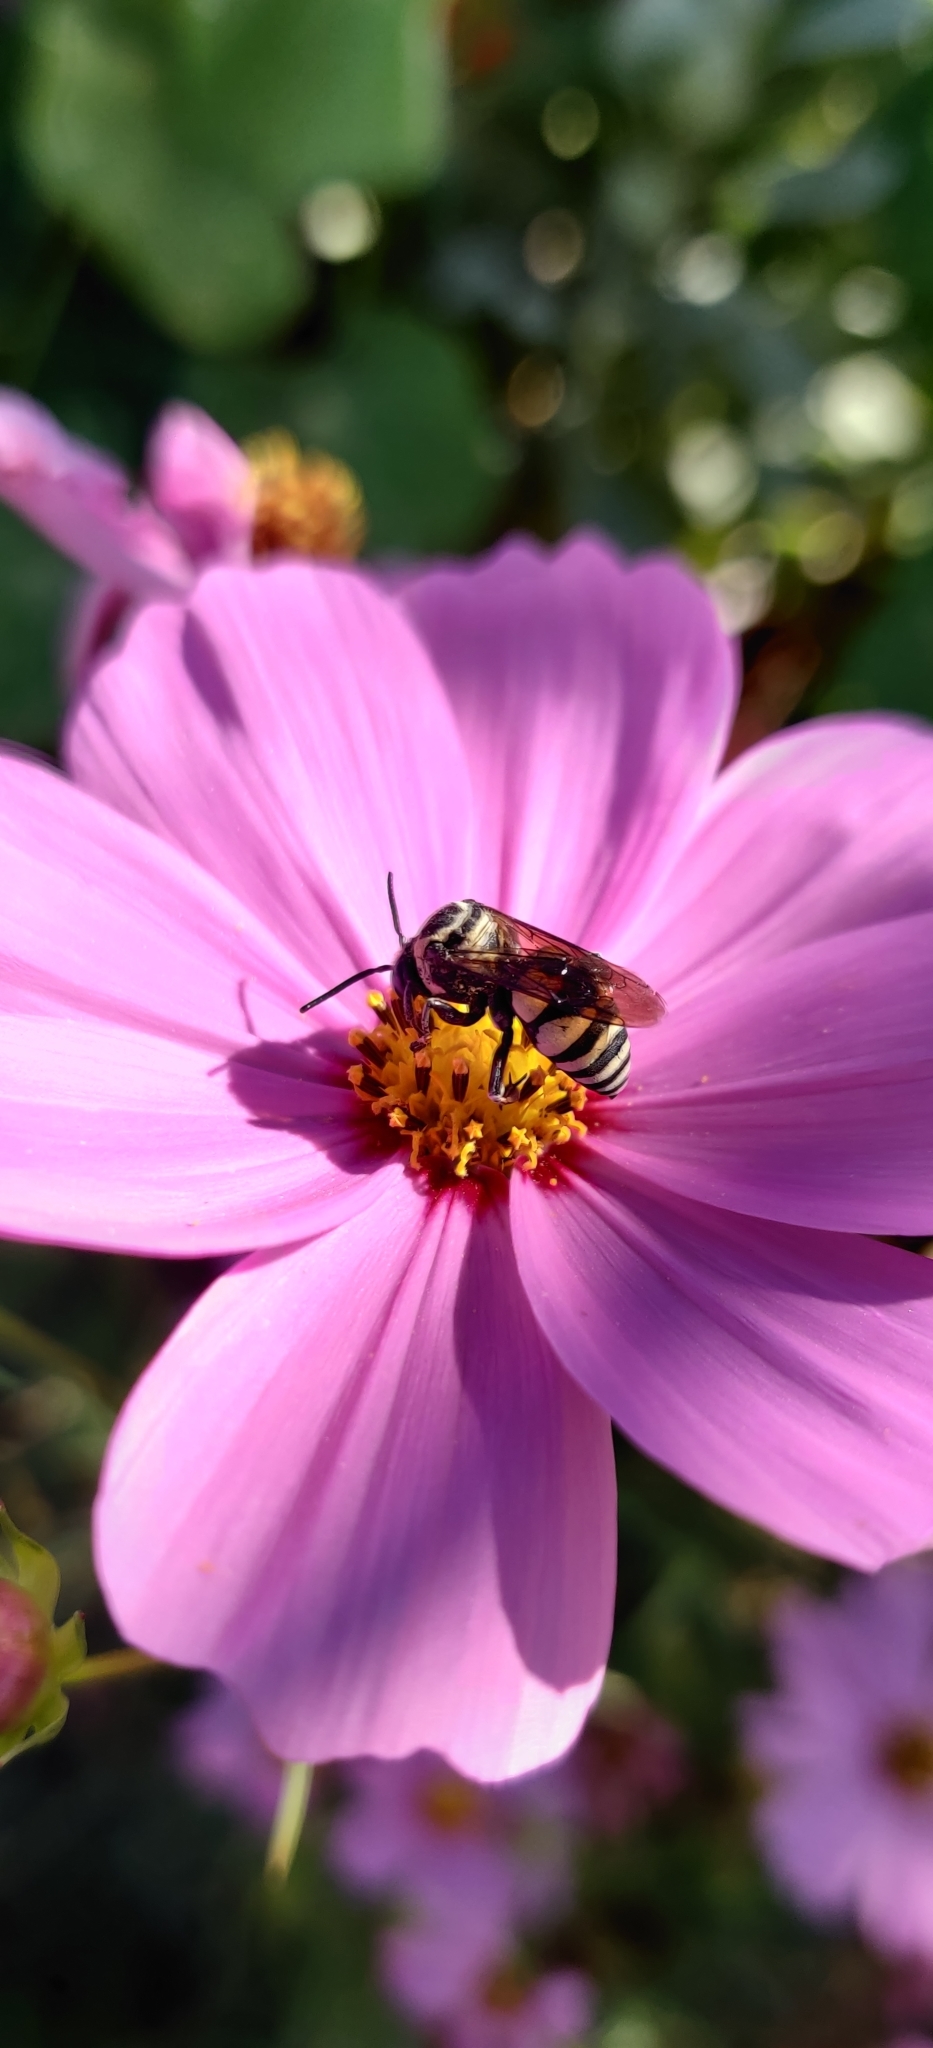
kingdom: Animalia
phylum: Arthropoda
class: Insecta
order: Hymenoptera
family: Apidae
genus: Triepeolus
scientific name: Triepeolus remigatus
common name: Squash longhorn-cuckoo
